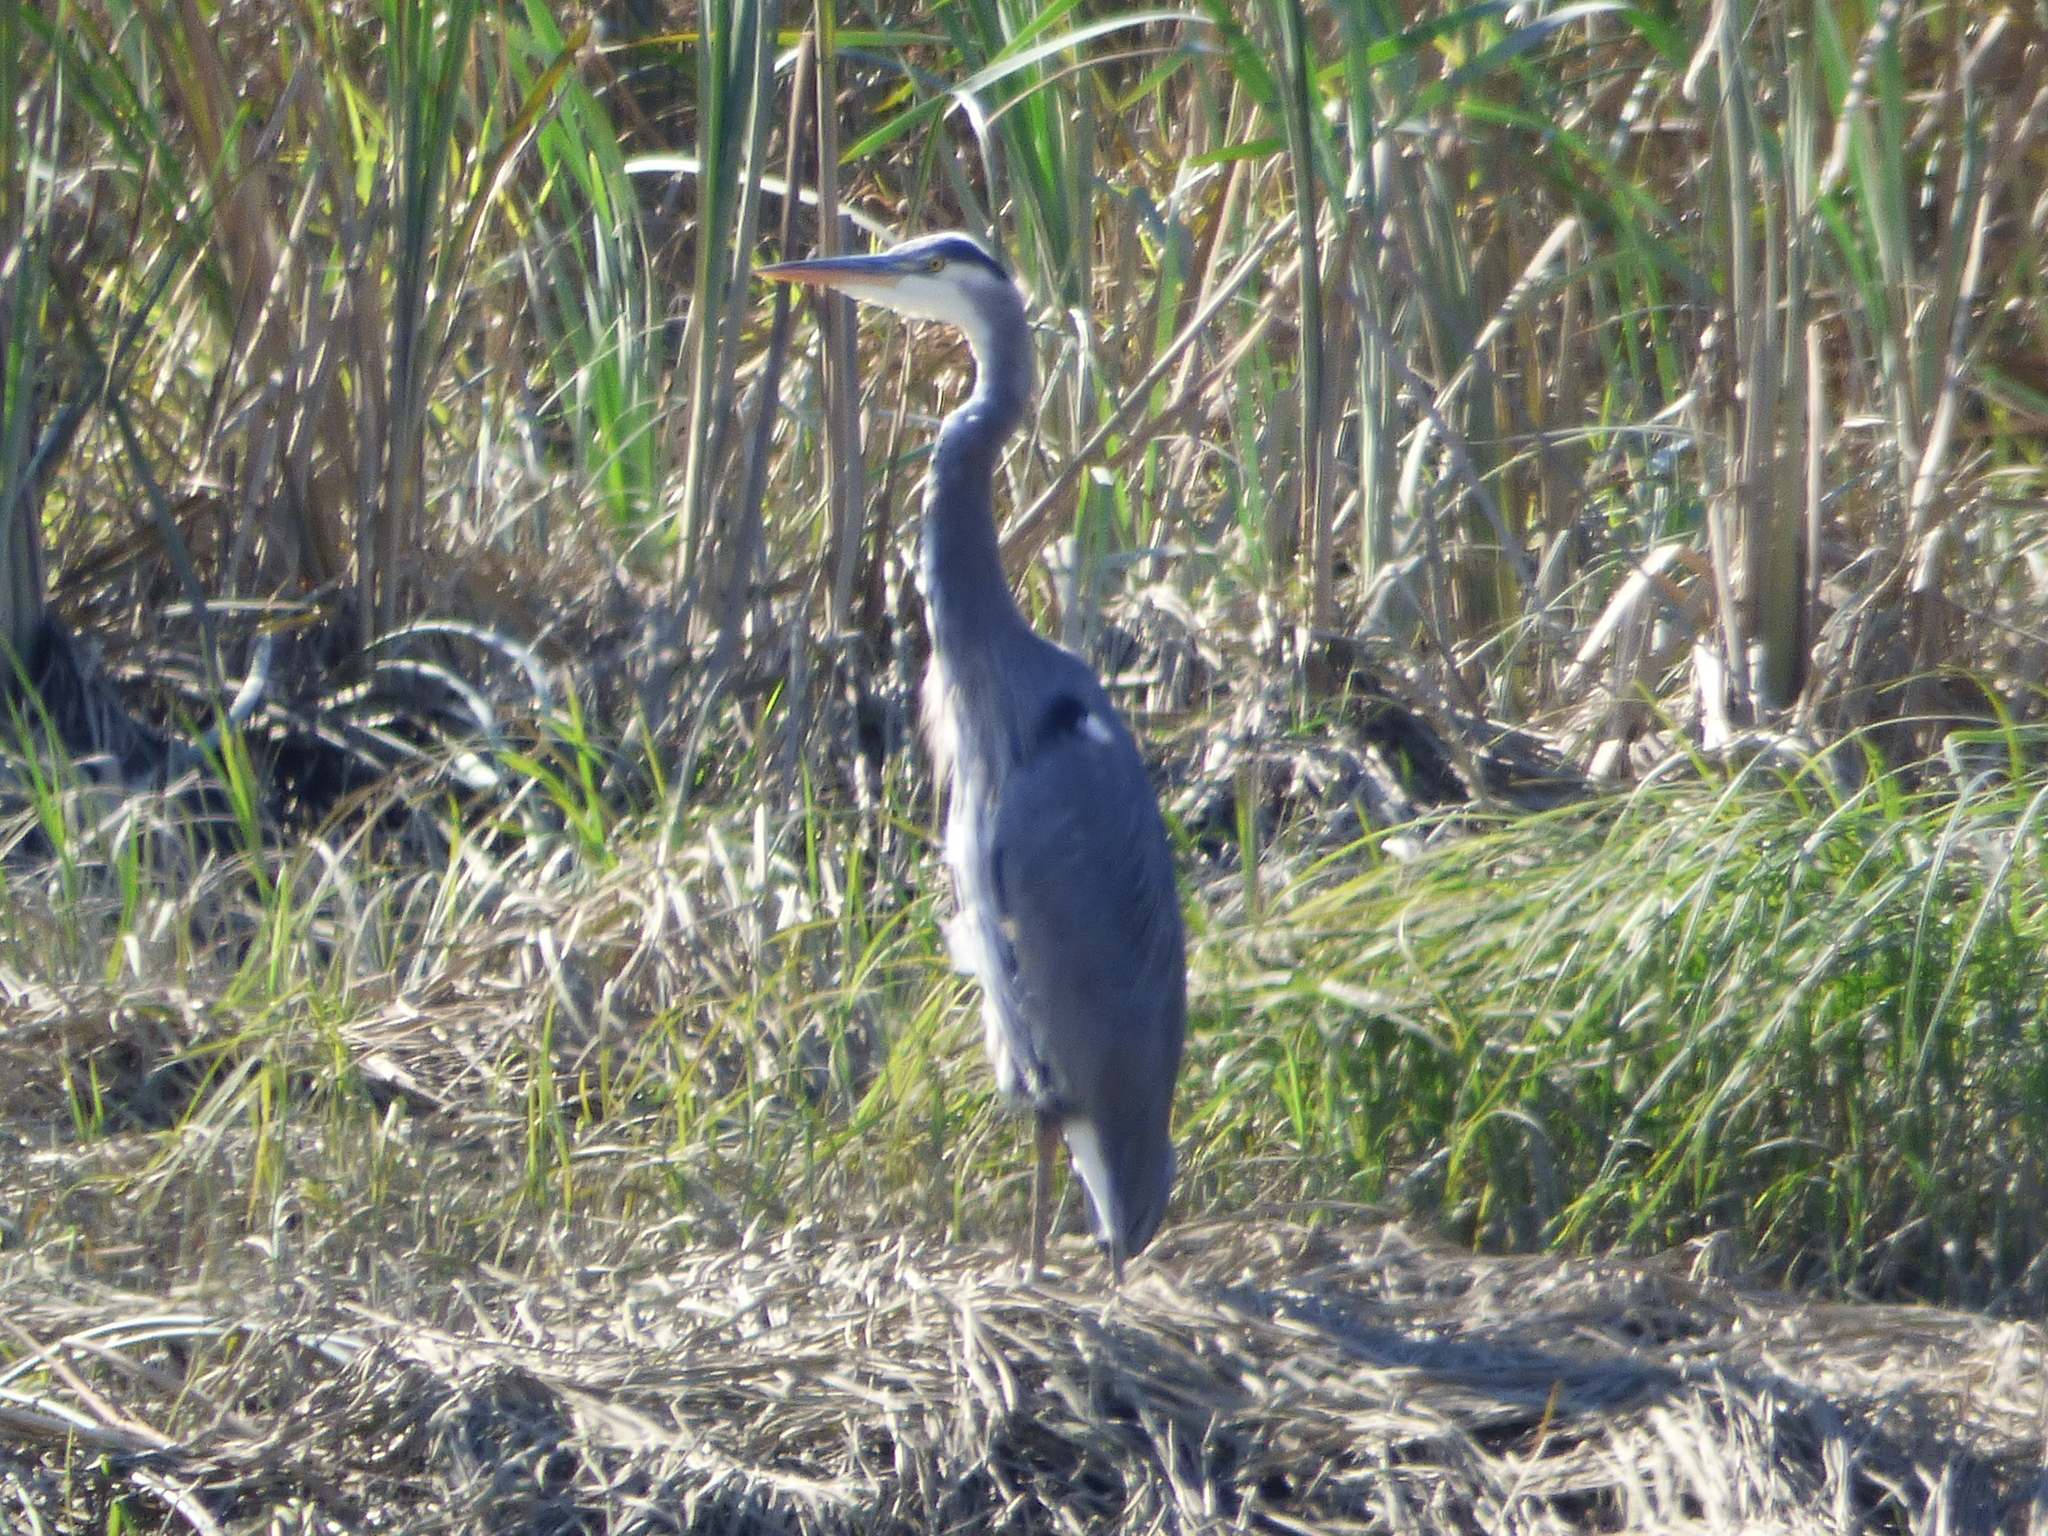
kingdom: Animalia
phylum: Chordata
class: Aves
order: Pelecaniformes
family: Ardeidae
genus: Ardea
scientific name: Ardea herodias
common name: Great blue heron
